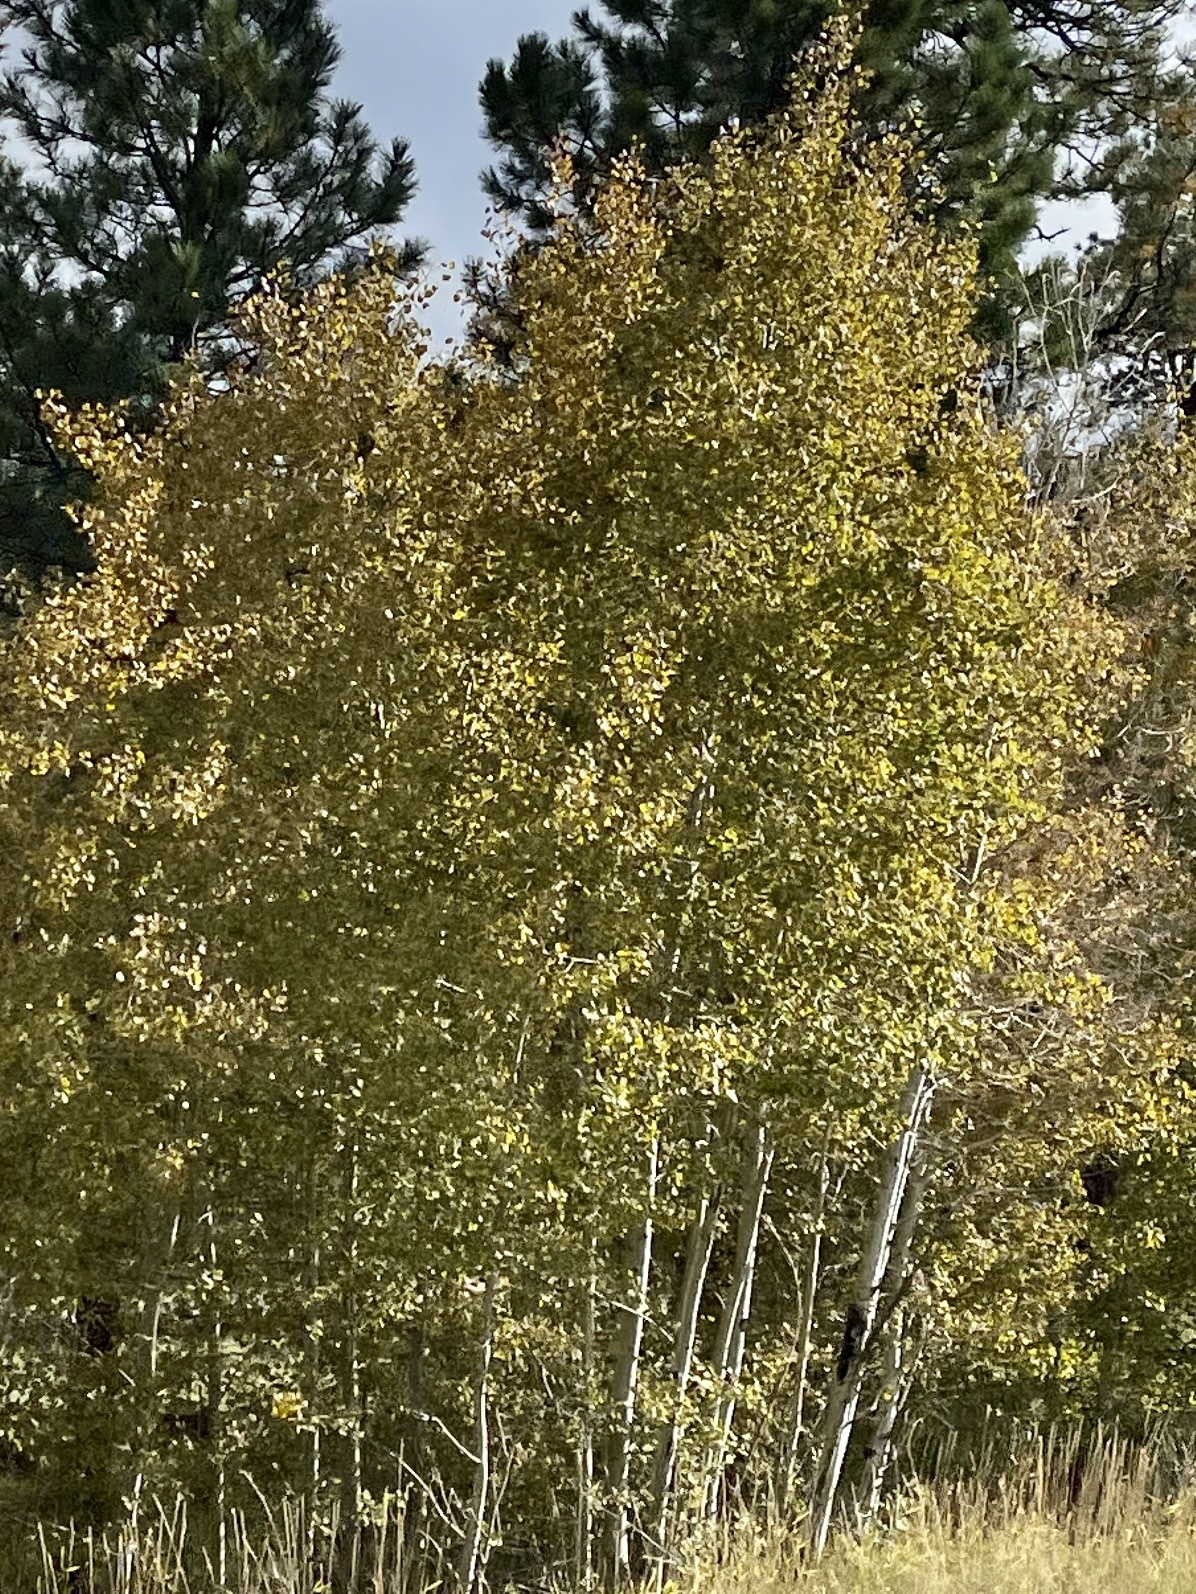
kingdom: Plantae
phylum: Tracheophyta
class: Magnoliopsida
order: Malpighiales
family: Salicaceae
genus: Populus
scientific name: Populus tremuloides
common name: Quaking aspen
